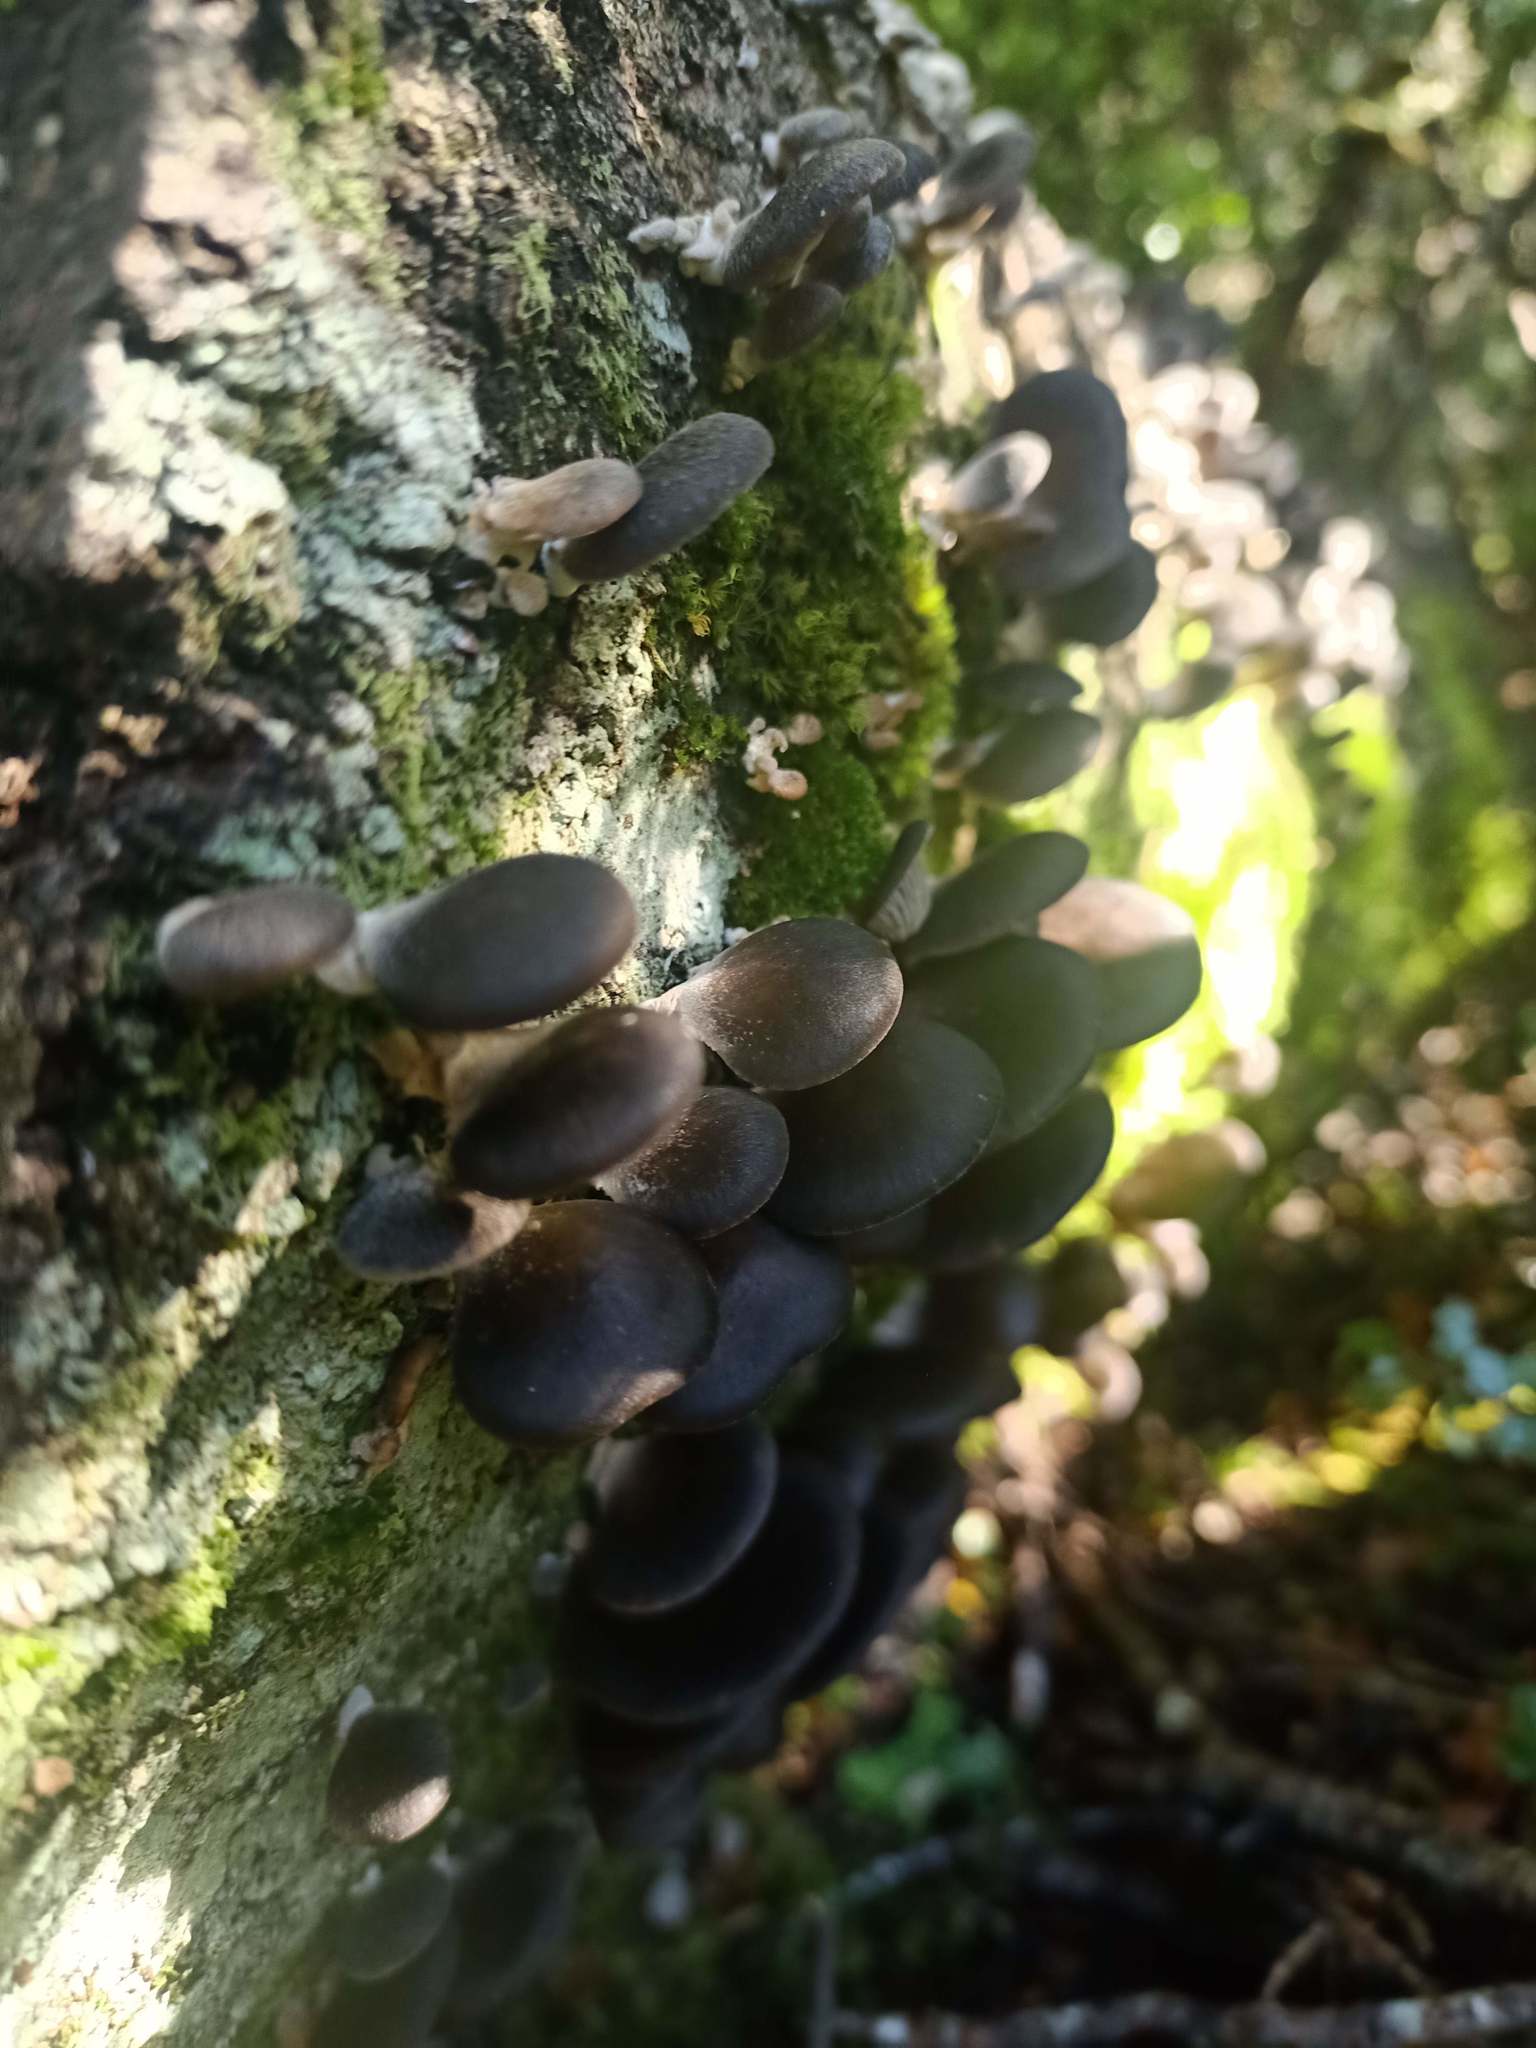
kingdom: Fungi
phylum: Basidiomycota
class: Agaricomycetes
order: Agaricales
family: Pleurotaceae
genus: Pleurotus
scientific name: Pleurotus purpureo-olivaceus
